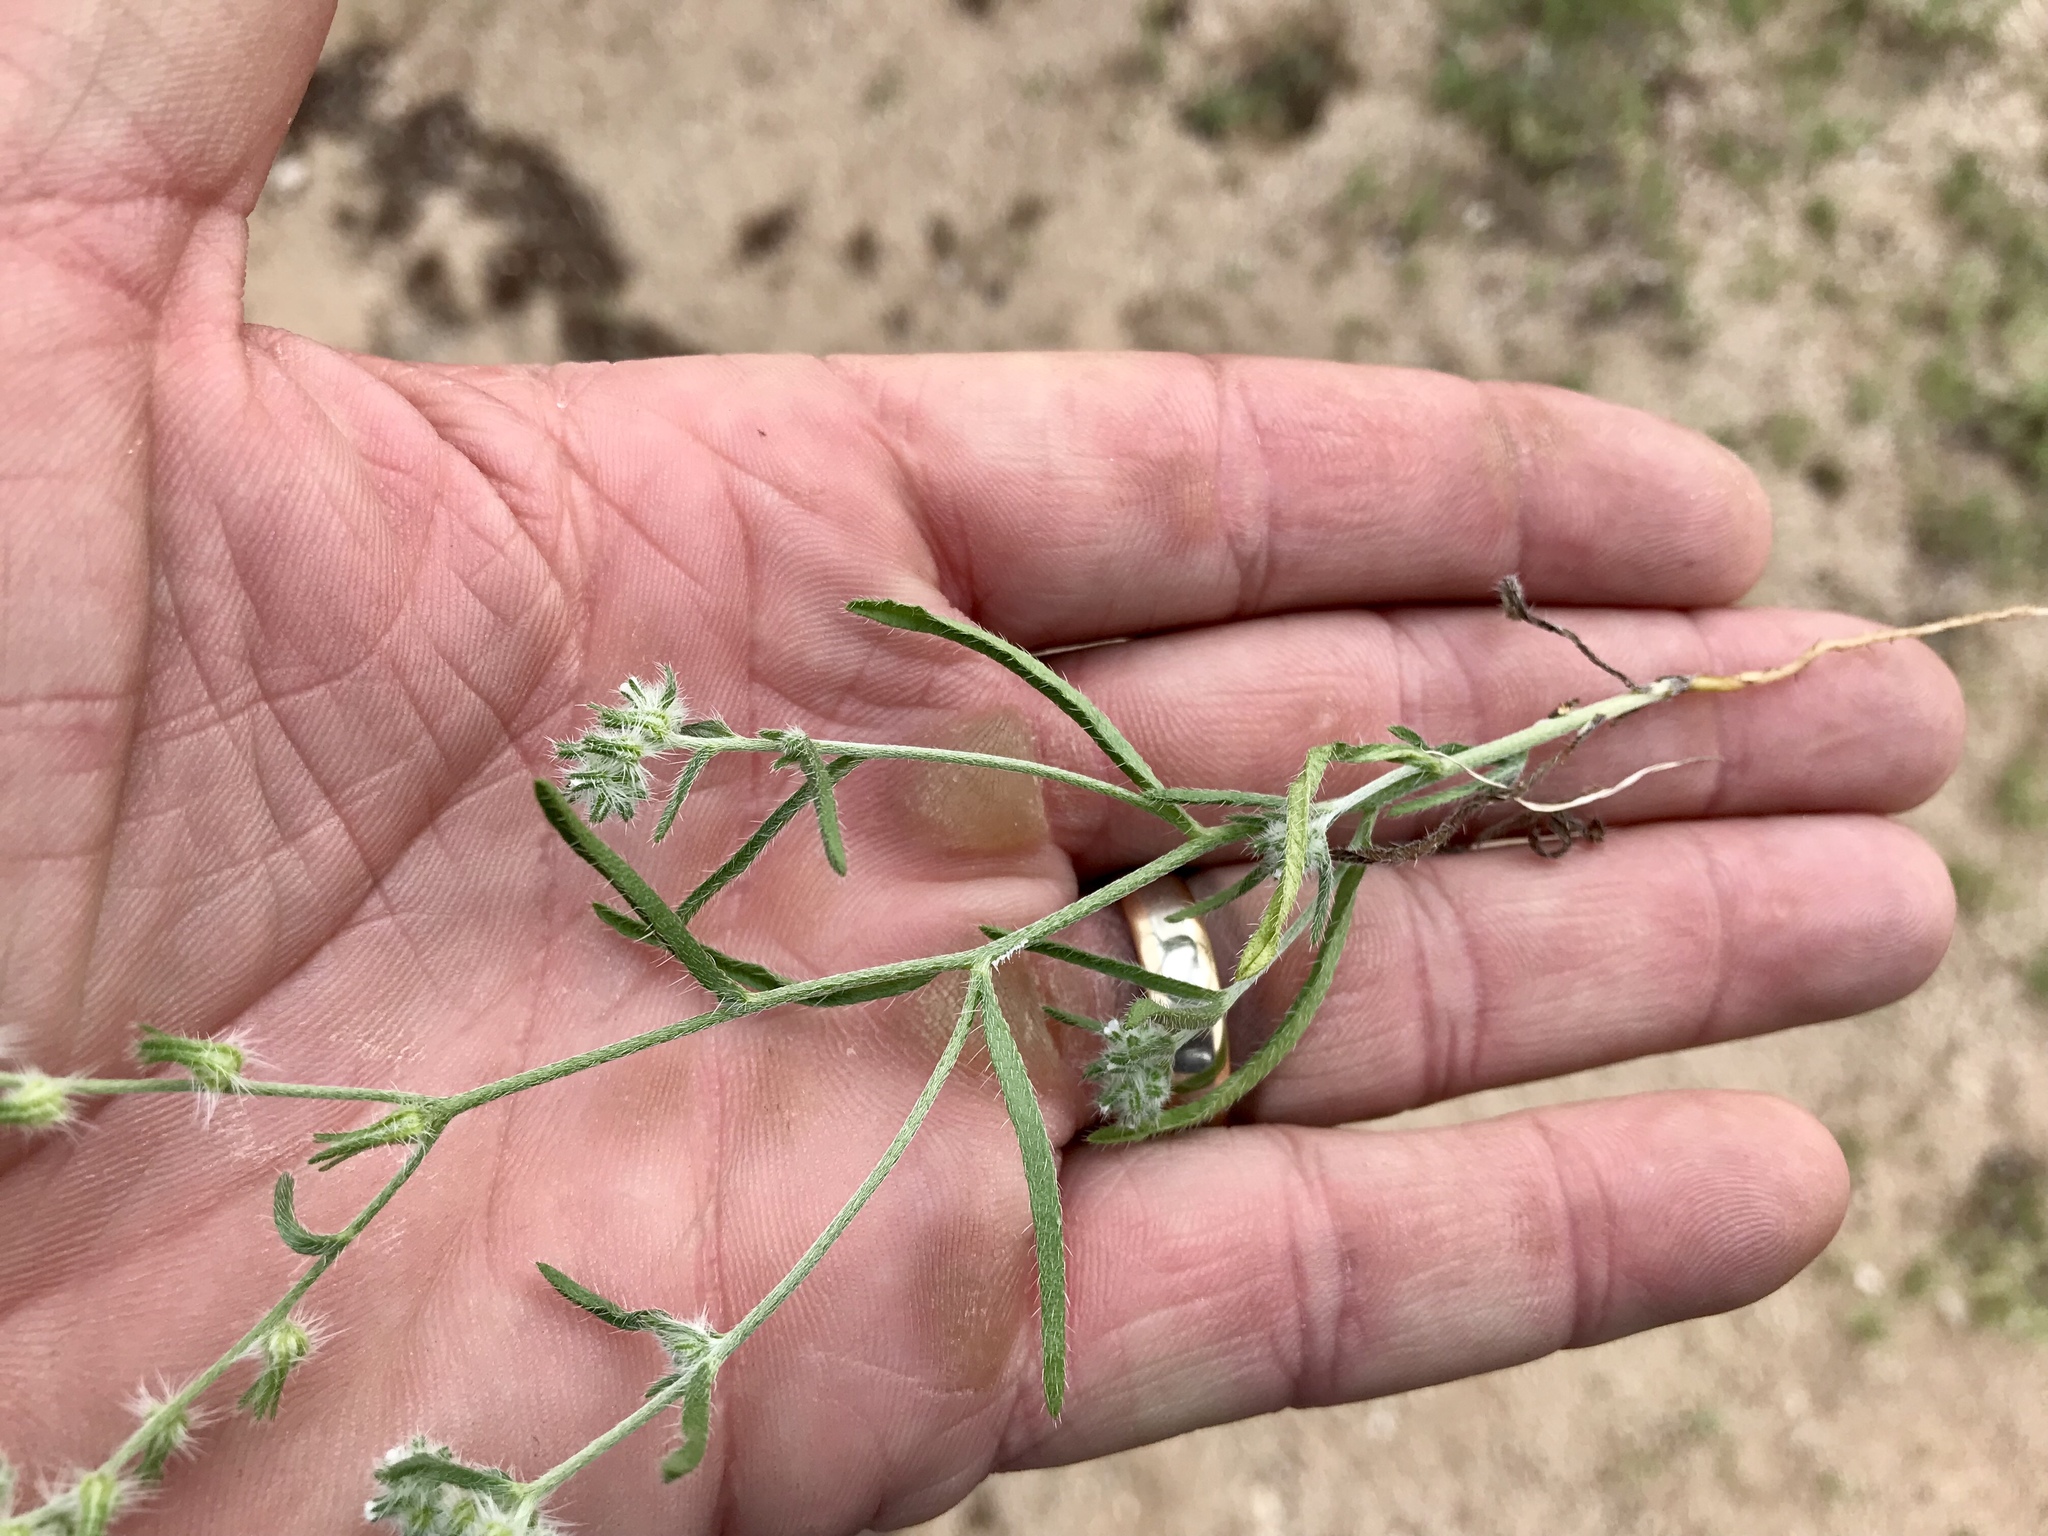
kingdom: Plantae
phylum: Tracheophyta
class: Magnoliopsida
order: Boraginales
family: Boraginaceae
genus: Cryptantha
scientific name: Cryptantha decipiens
